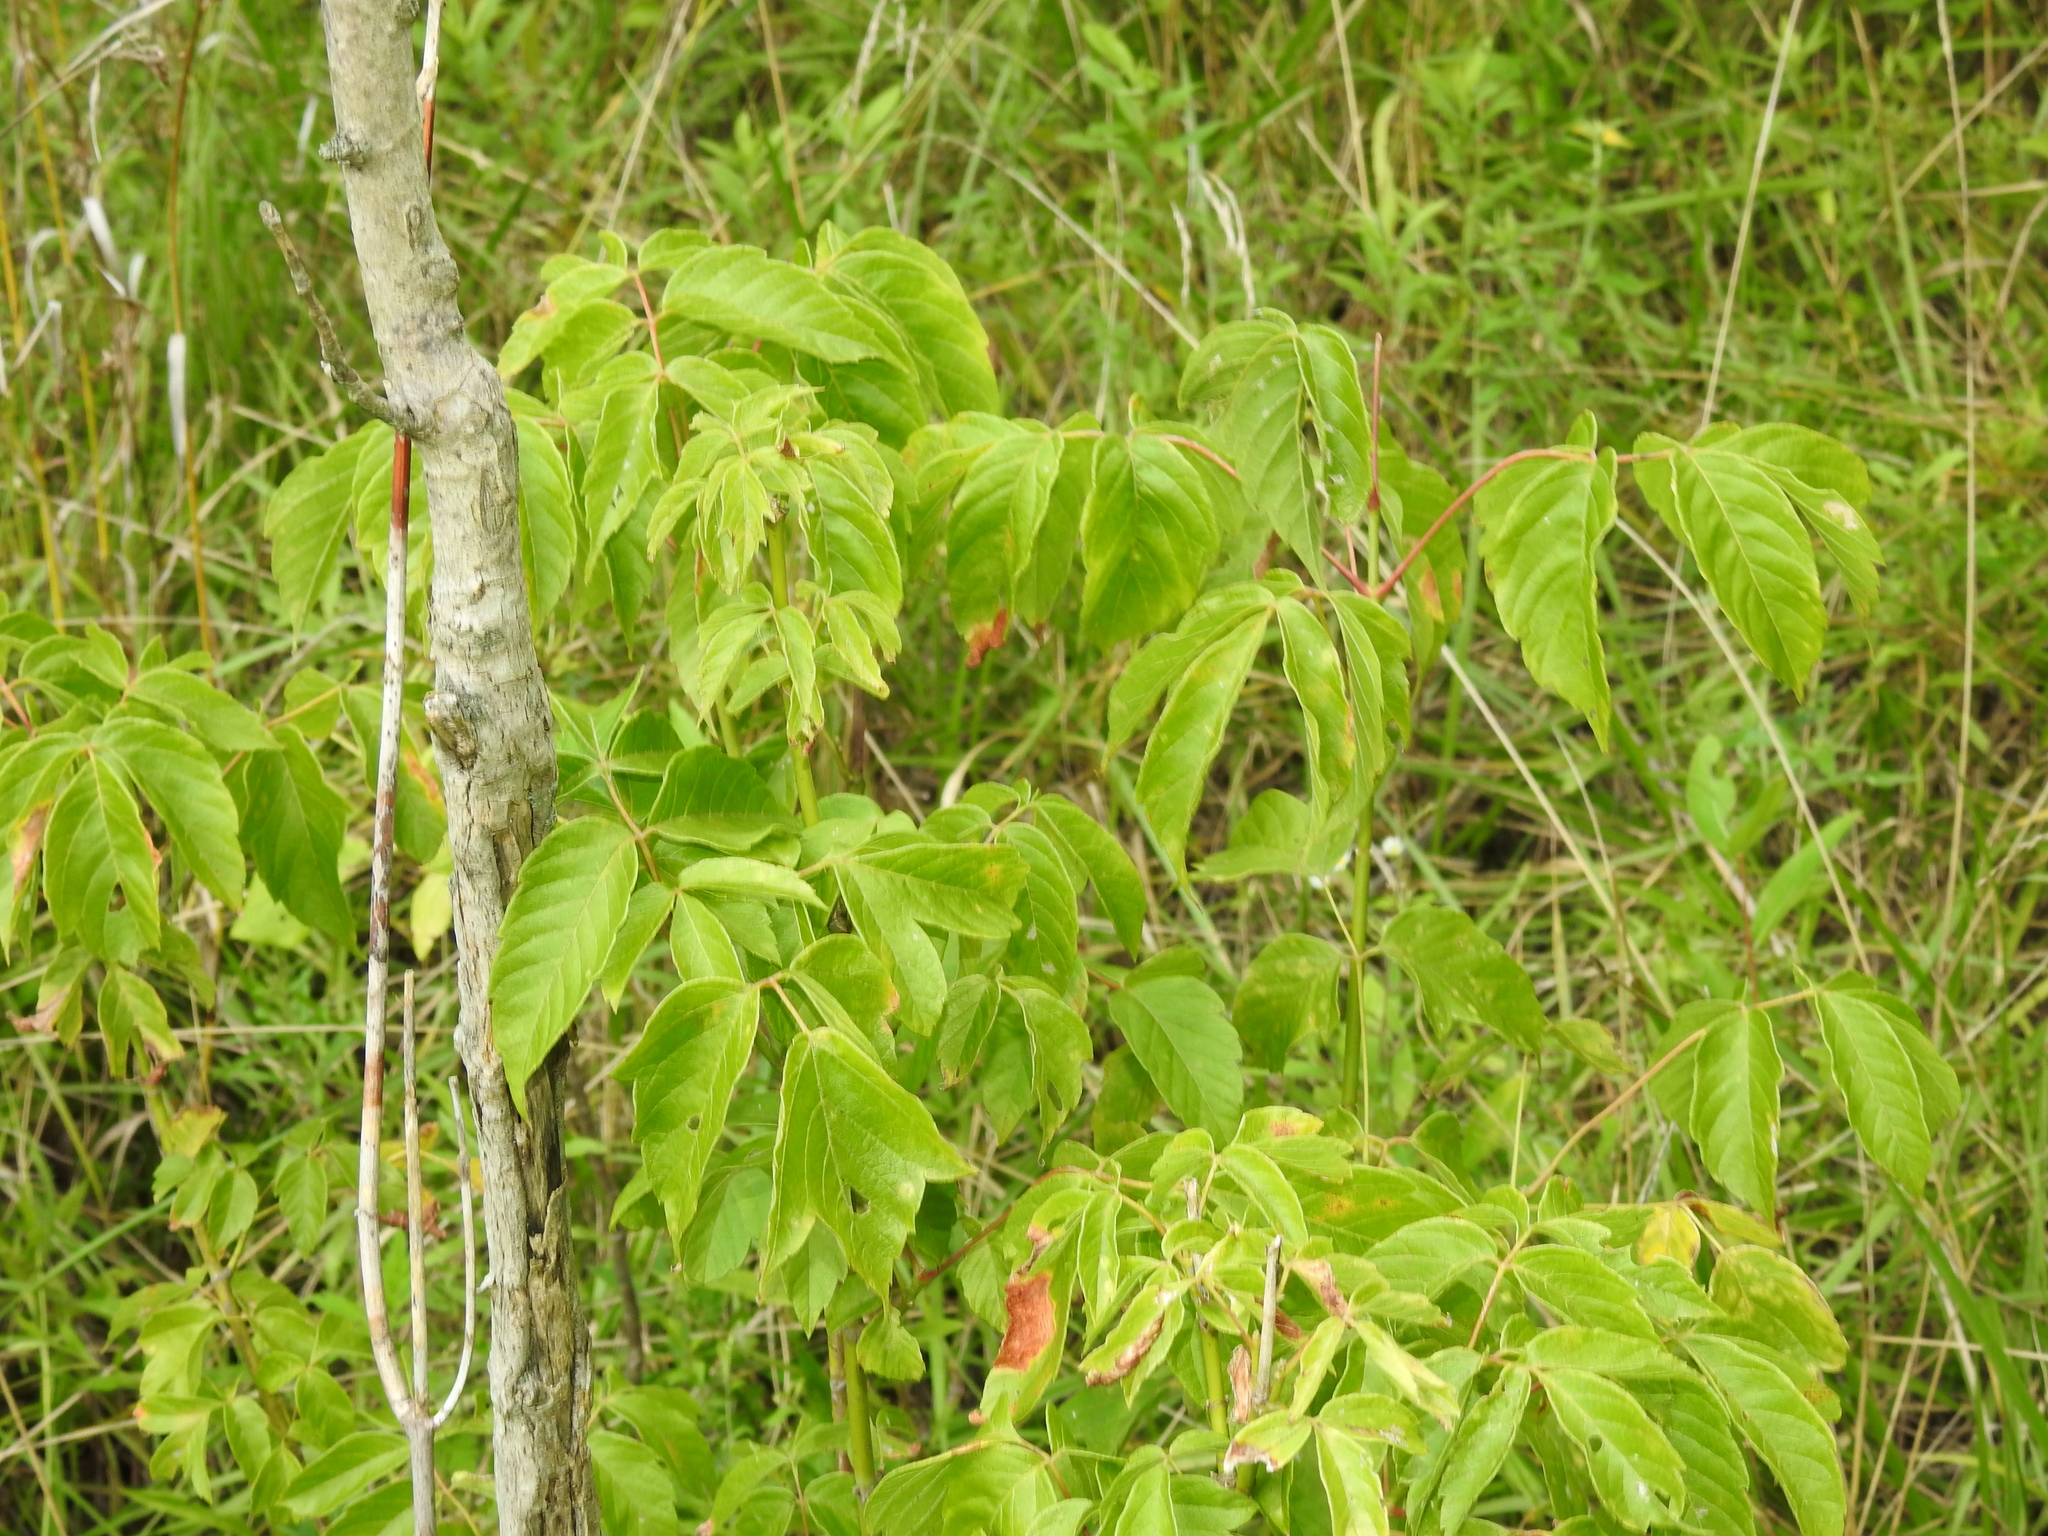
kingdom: Plantae
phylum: Tracheophyta
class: Magnoliopsida
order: Sapindales
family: Sapindaceae
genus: Acer
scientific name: Acer negundo
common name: Ashleaf maple
